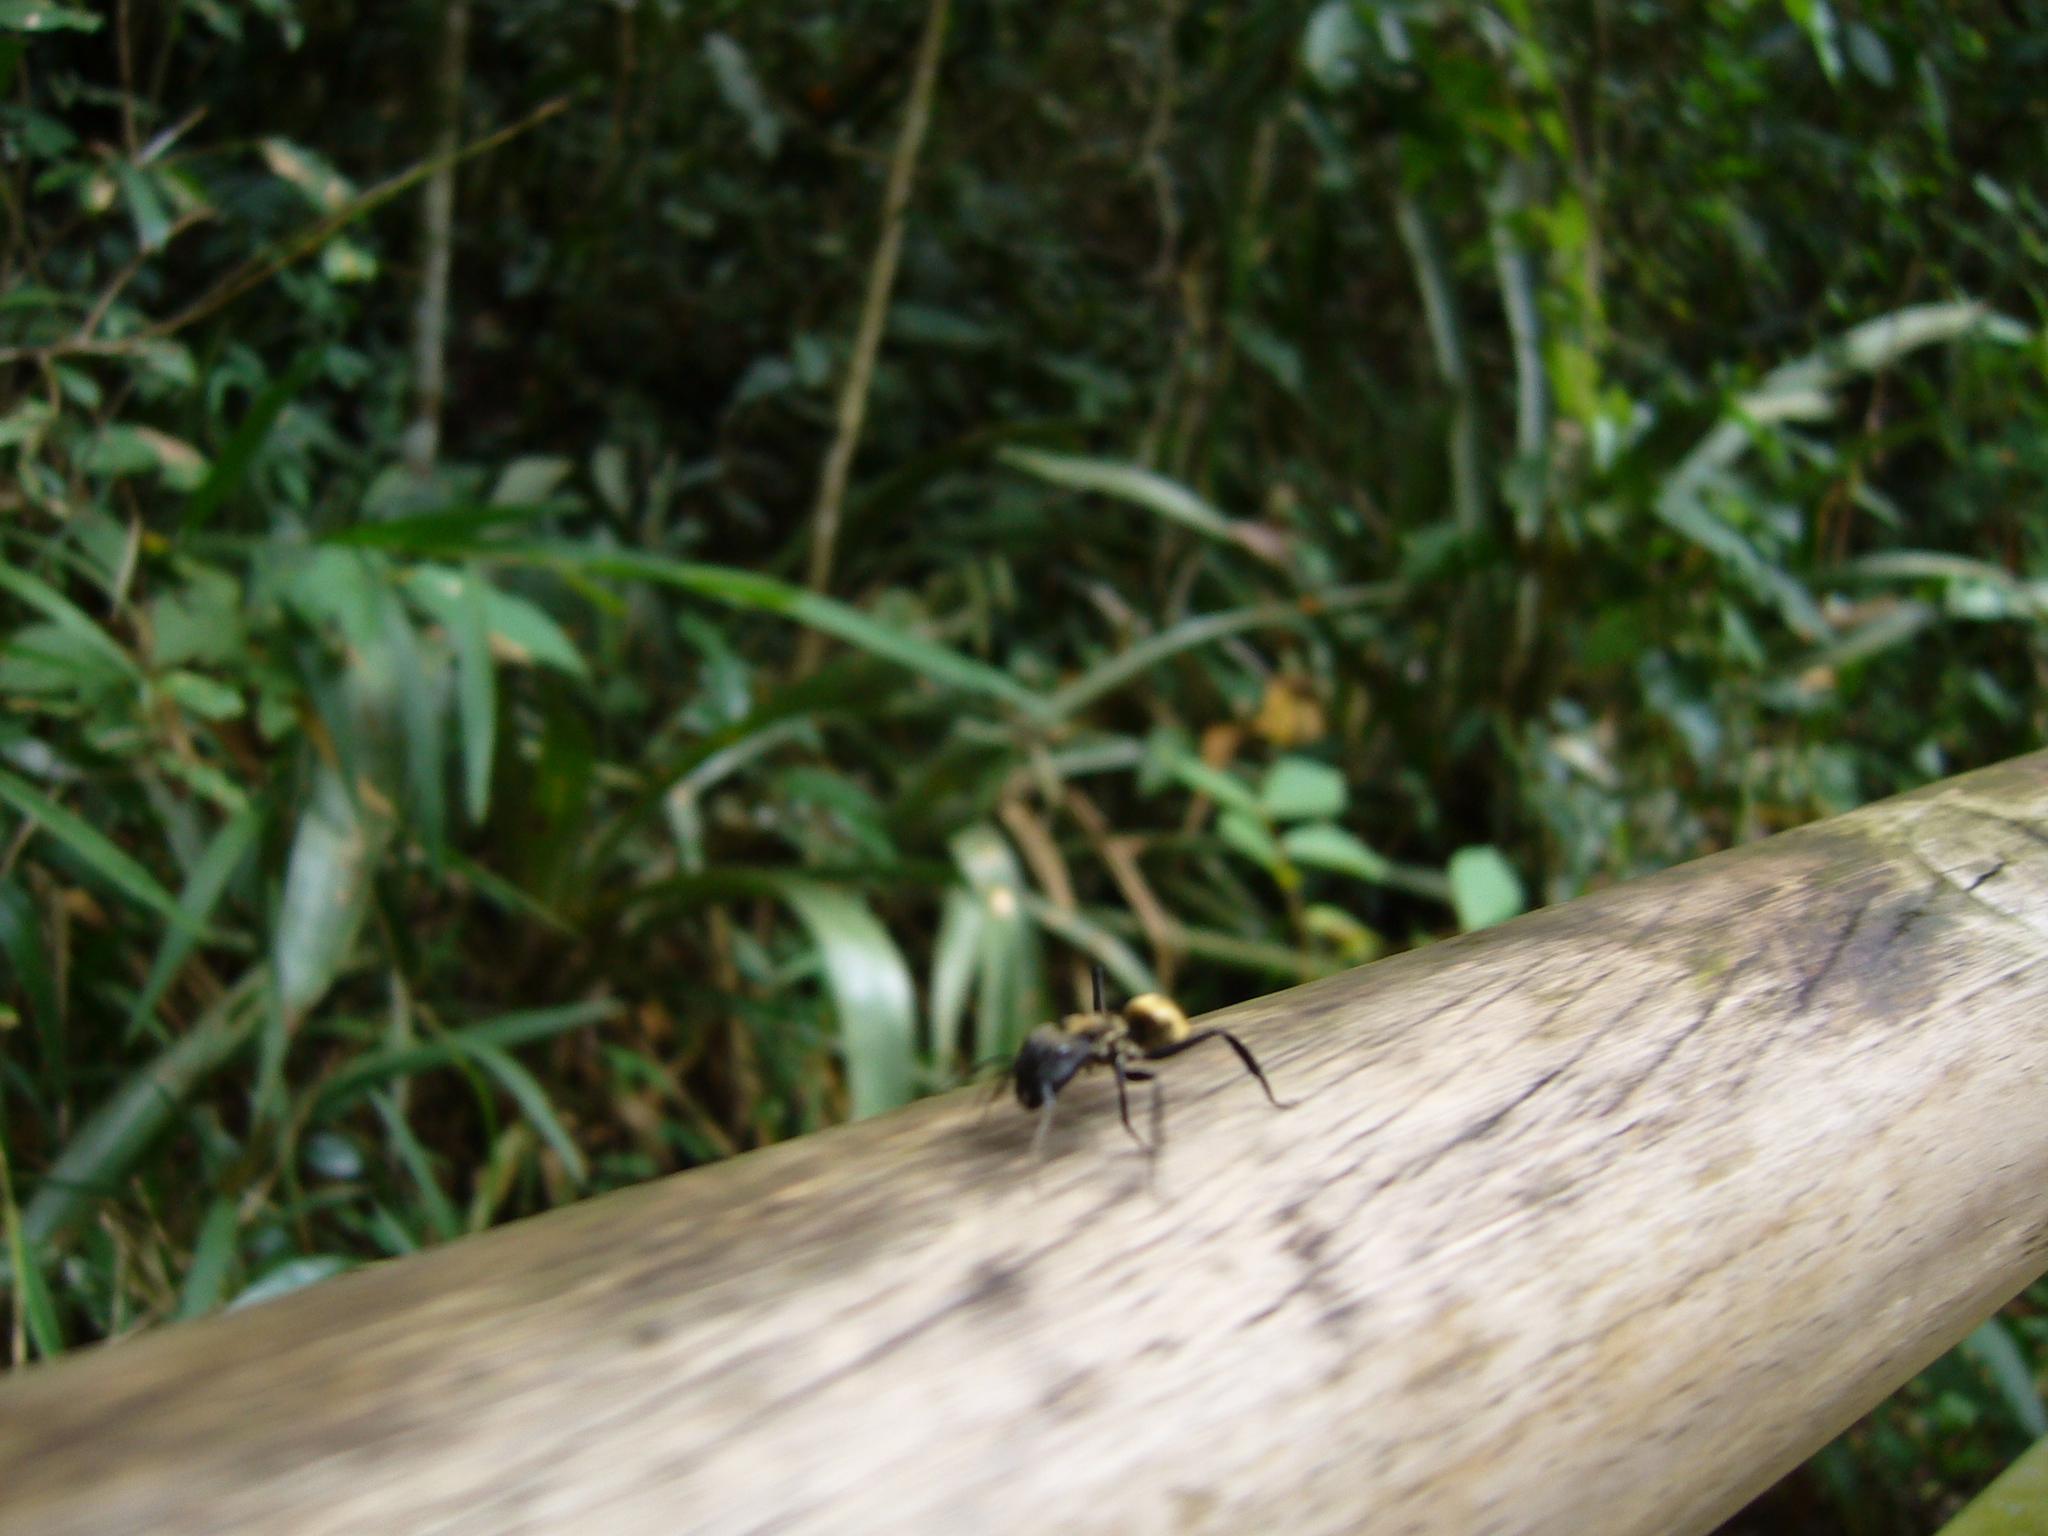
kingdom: Animalia
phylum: Arthropoda
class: Insecta
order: Hymenoptera
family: Formicidae
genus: Camponotus
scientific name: Camponotus sericeiventris
